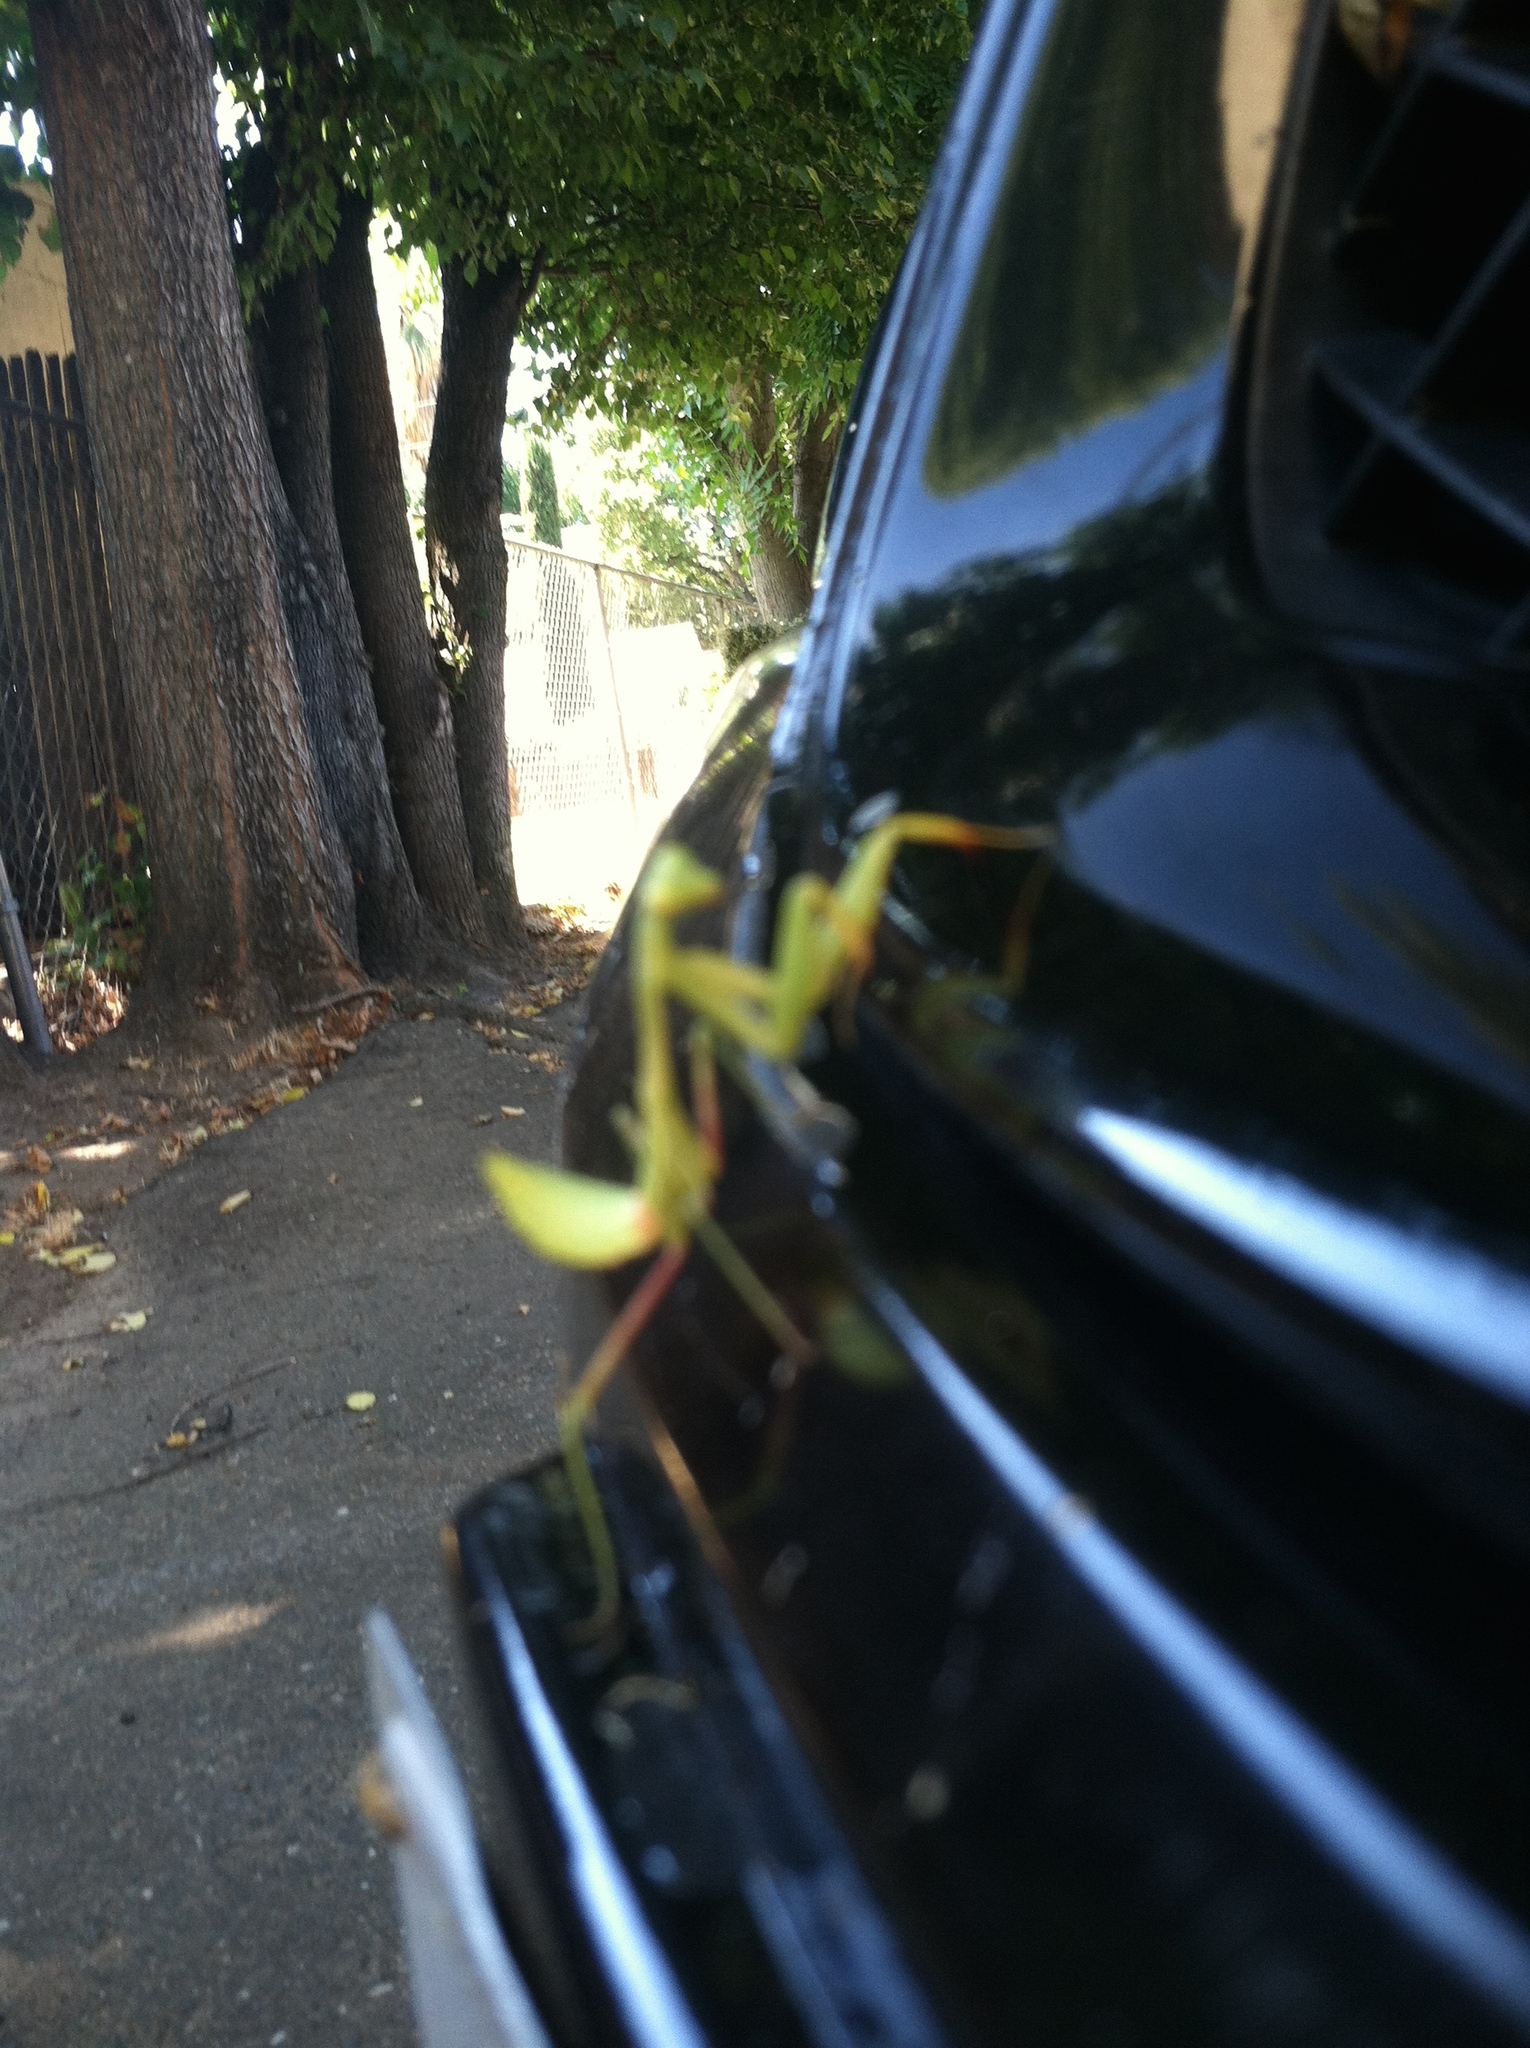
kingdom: Animalia
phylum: Arthropoda
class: Insecta
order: Mantodea
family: Mantidae
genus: Stagmomantis
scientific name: Stagmomantis limbata
